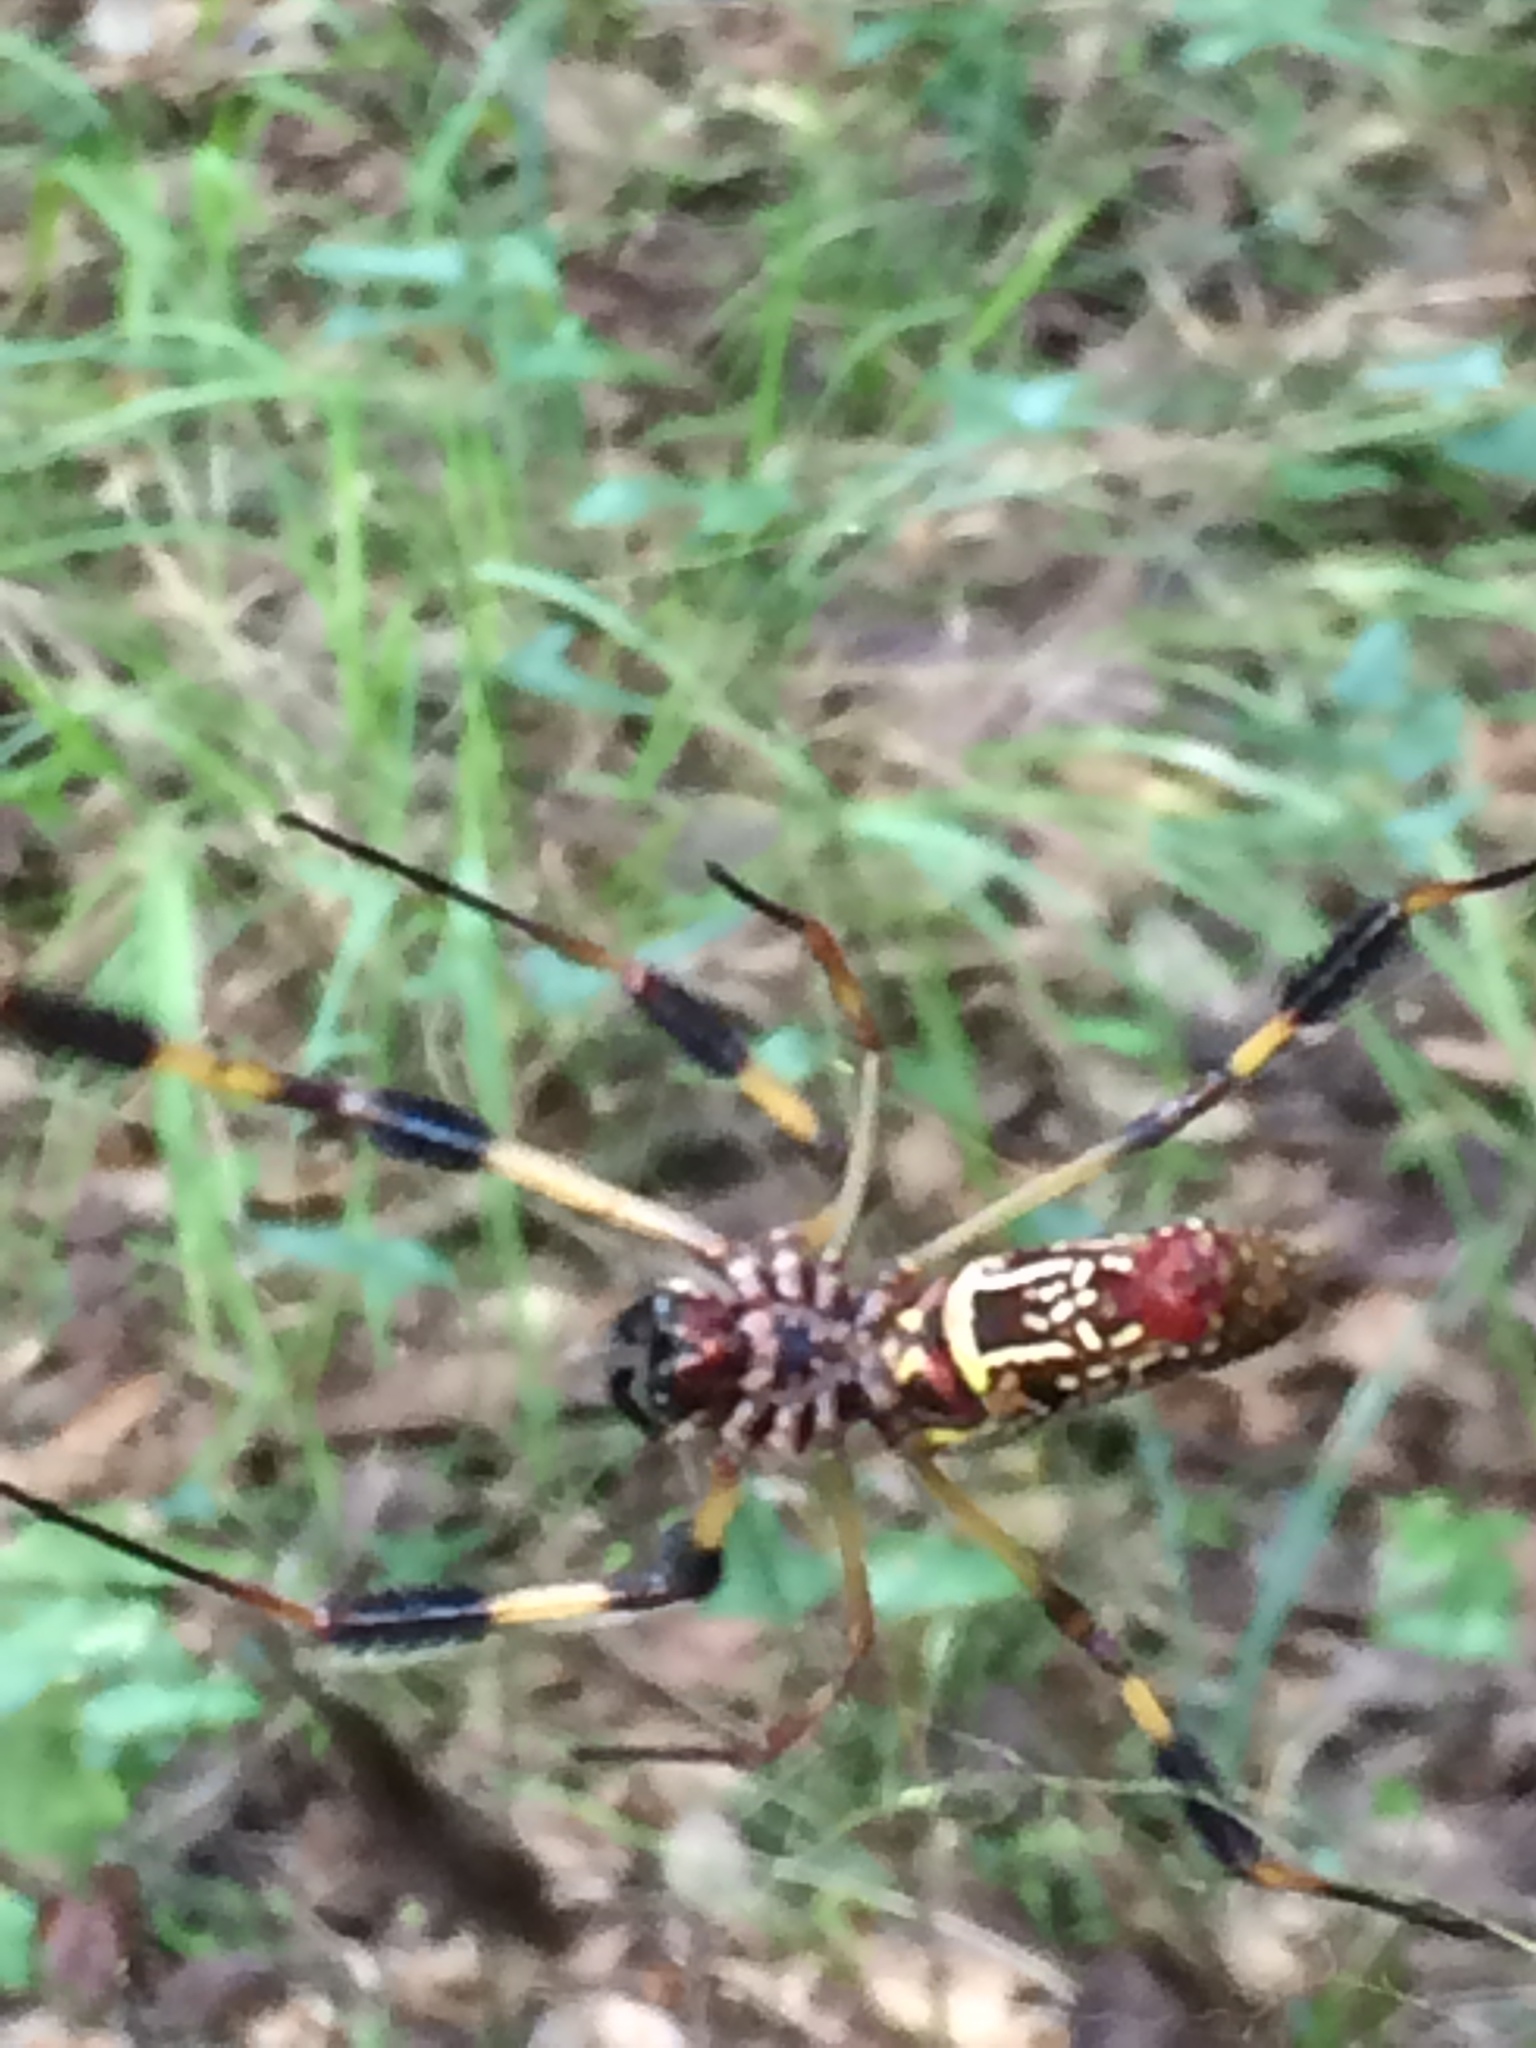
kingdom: Animalia
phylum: Arthropoda
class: Arachnida
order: Araneae
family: Araneidae
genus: Trichonephila
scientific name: Trichonephila clavipes
